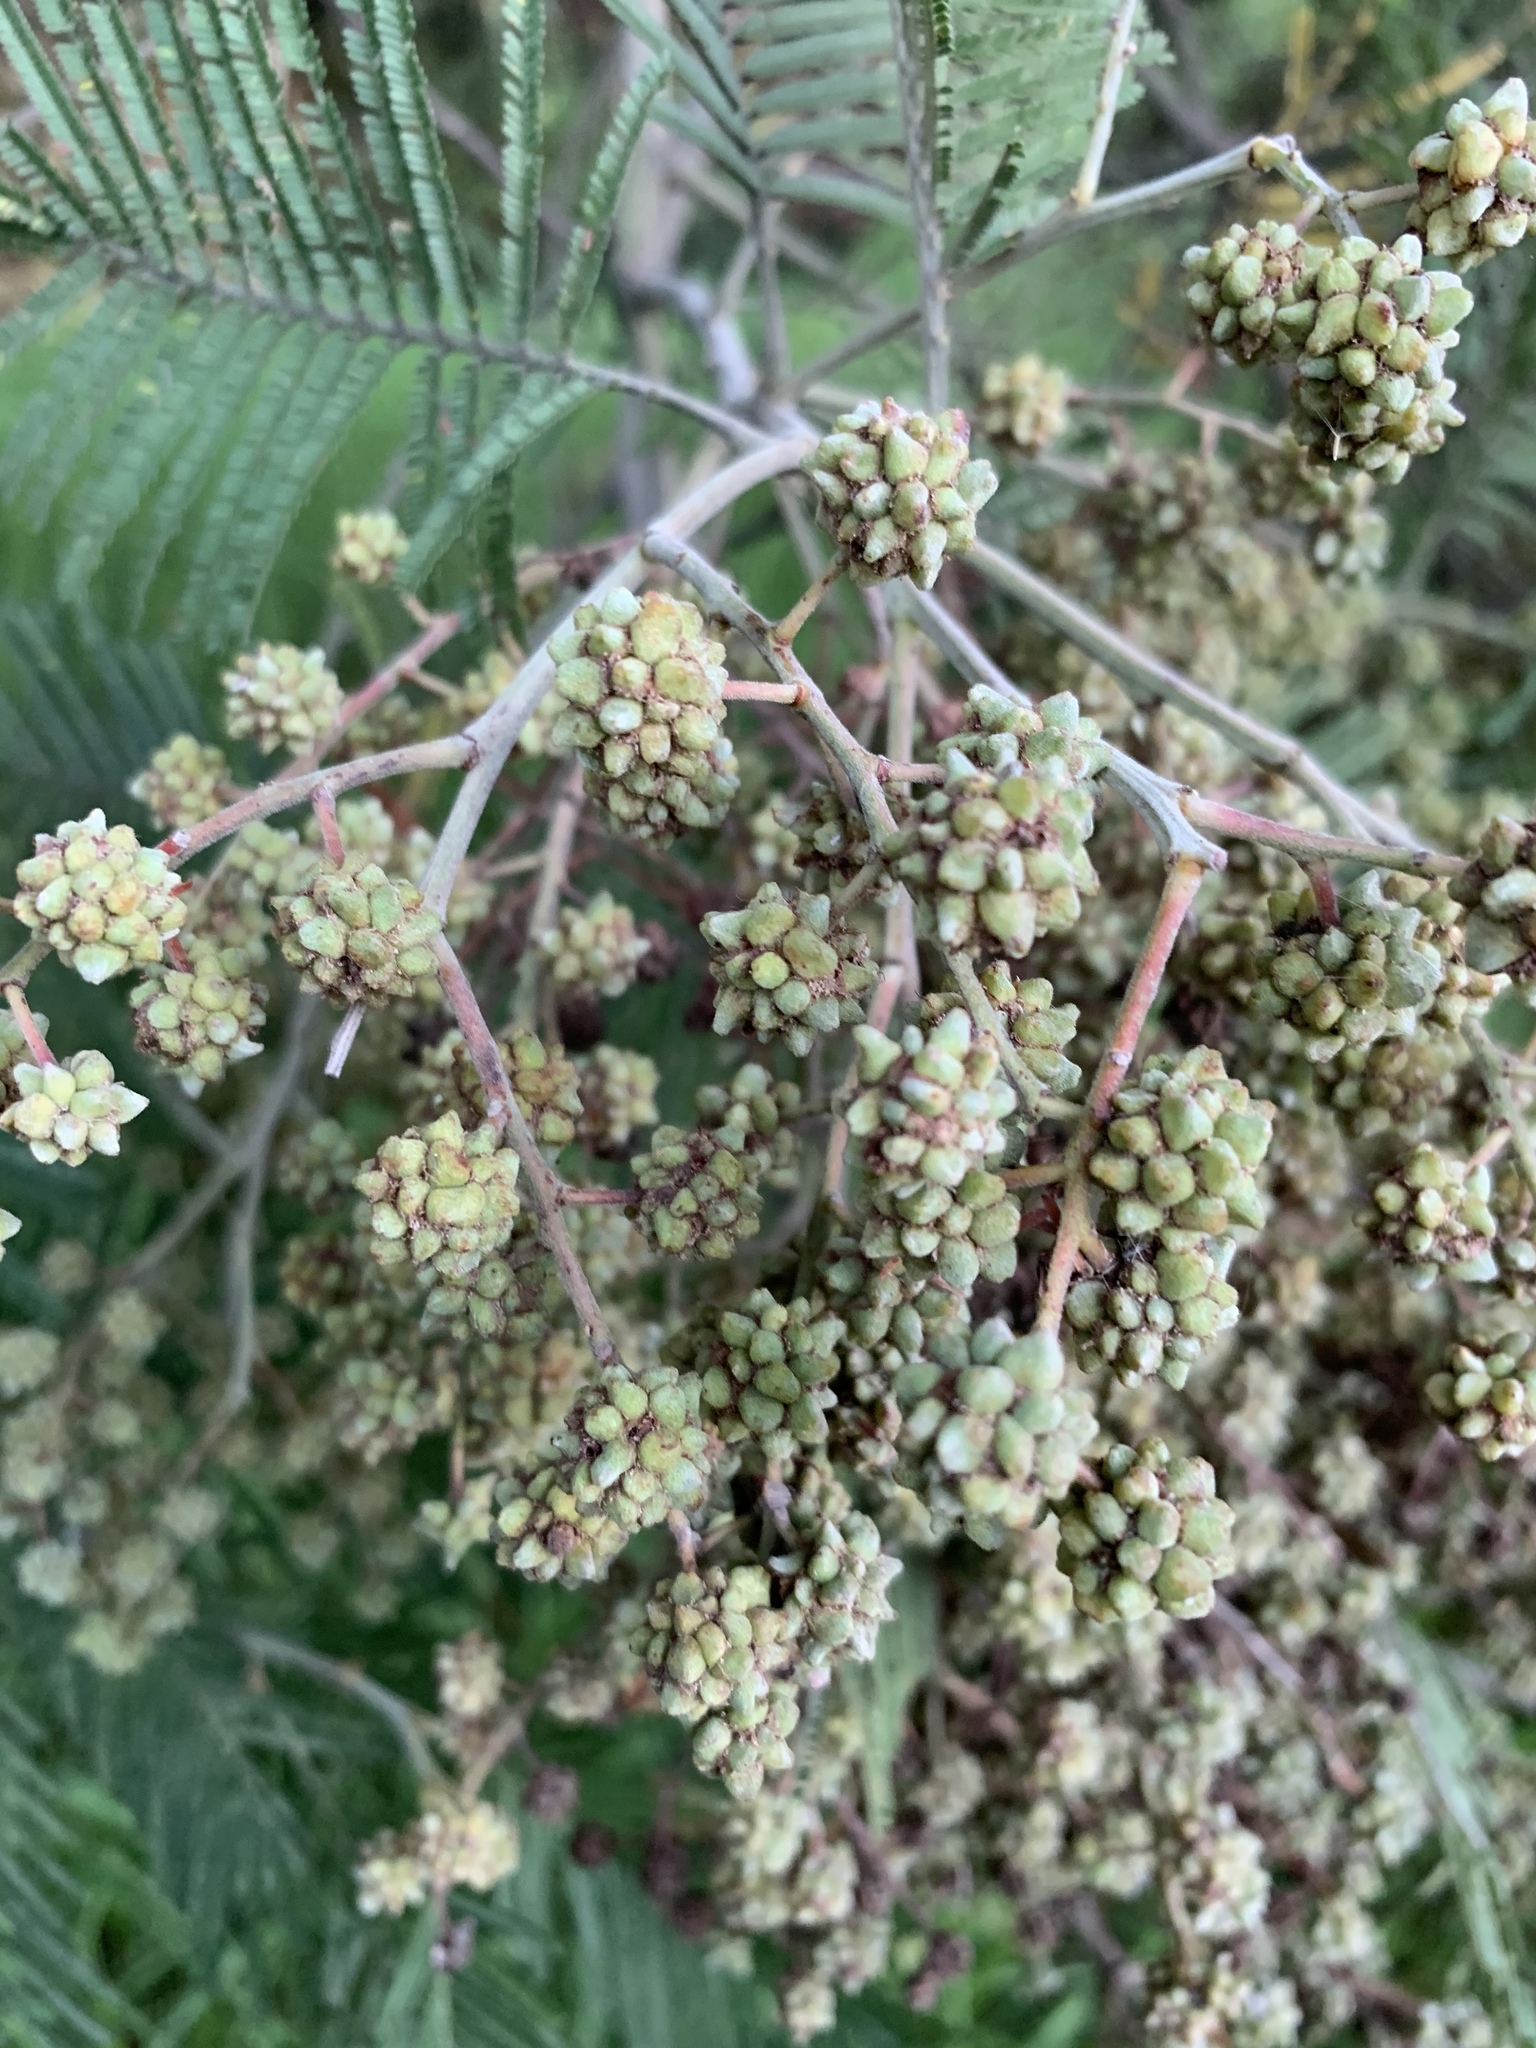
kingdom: Animalia
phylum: Arthropoda
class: Insecta
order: Diptera
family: Cecidomyiidae
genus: Dasineura
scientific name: Dasineura rubiformis
